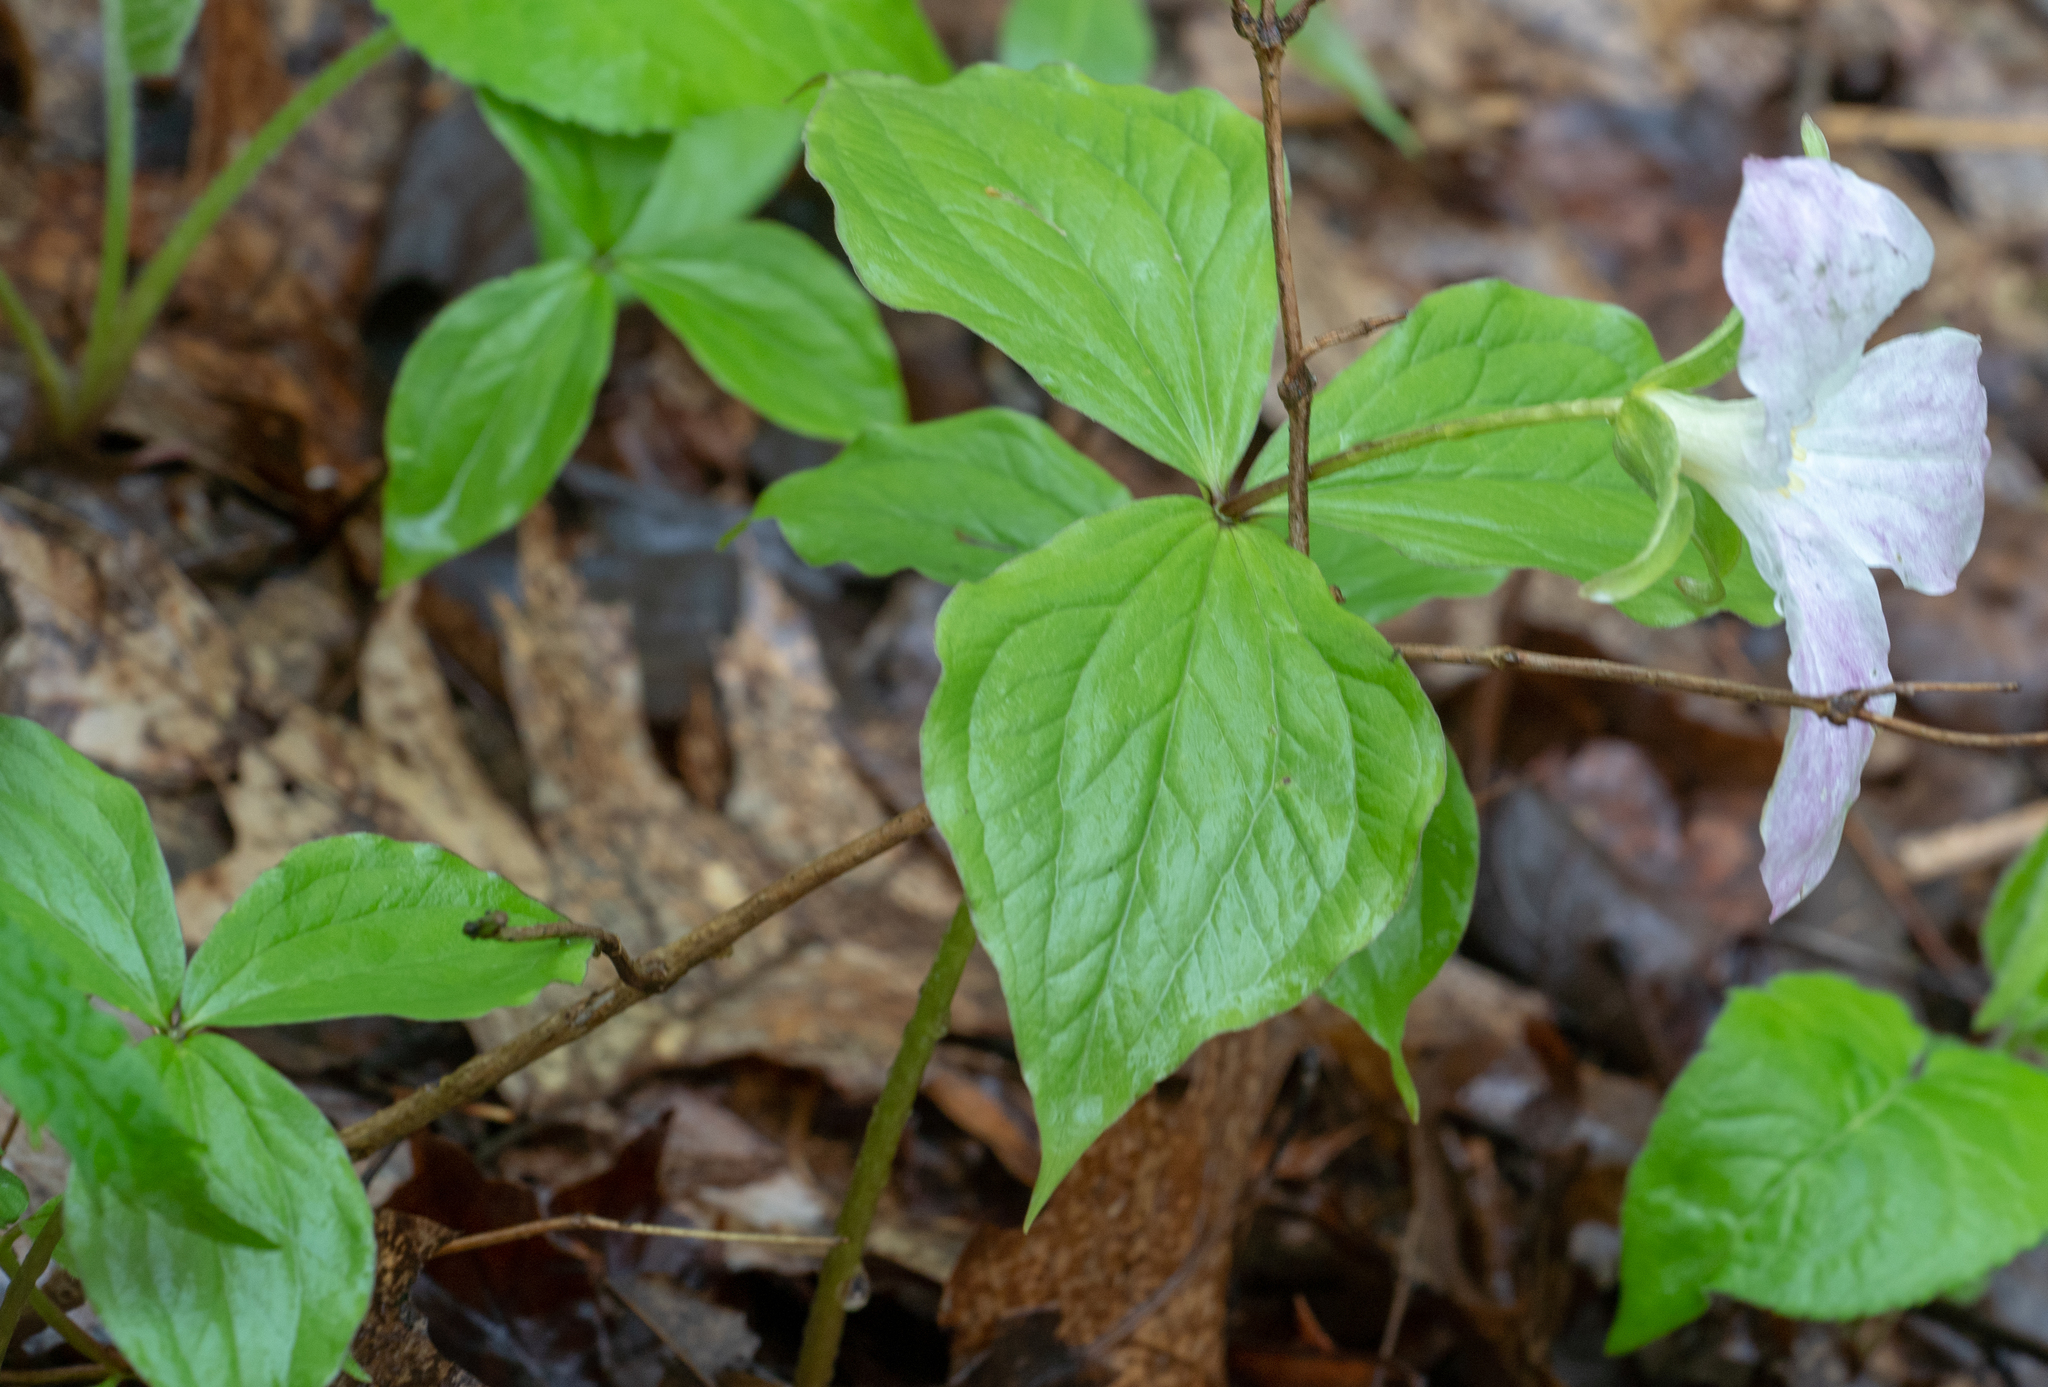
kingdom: Plantae
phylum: Tracheophyta
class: Liliopsida
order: Liliales
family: Melanthiaceae
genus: Trillium
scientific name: Trillium grandiflorum
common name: Great white trillium
